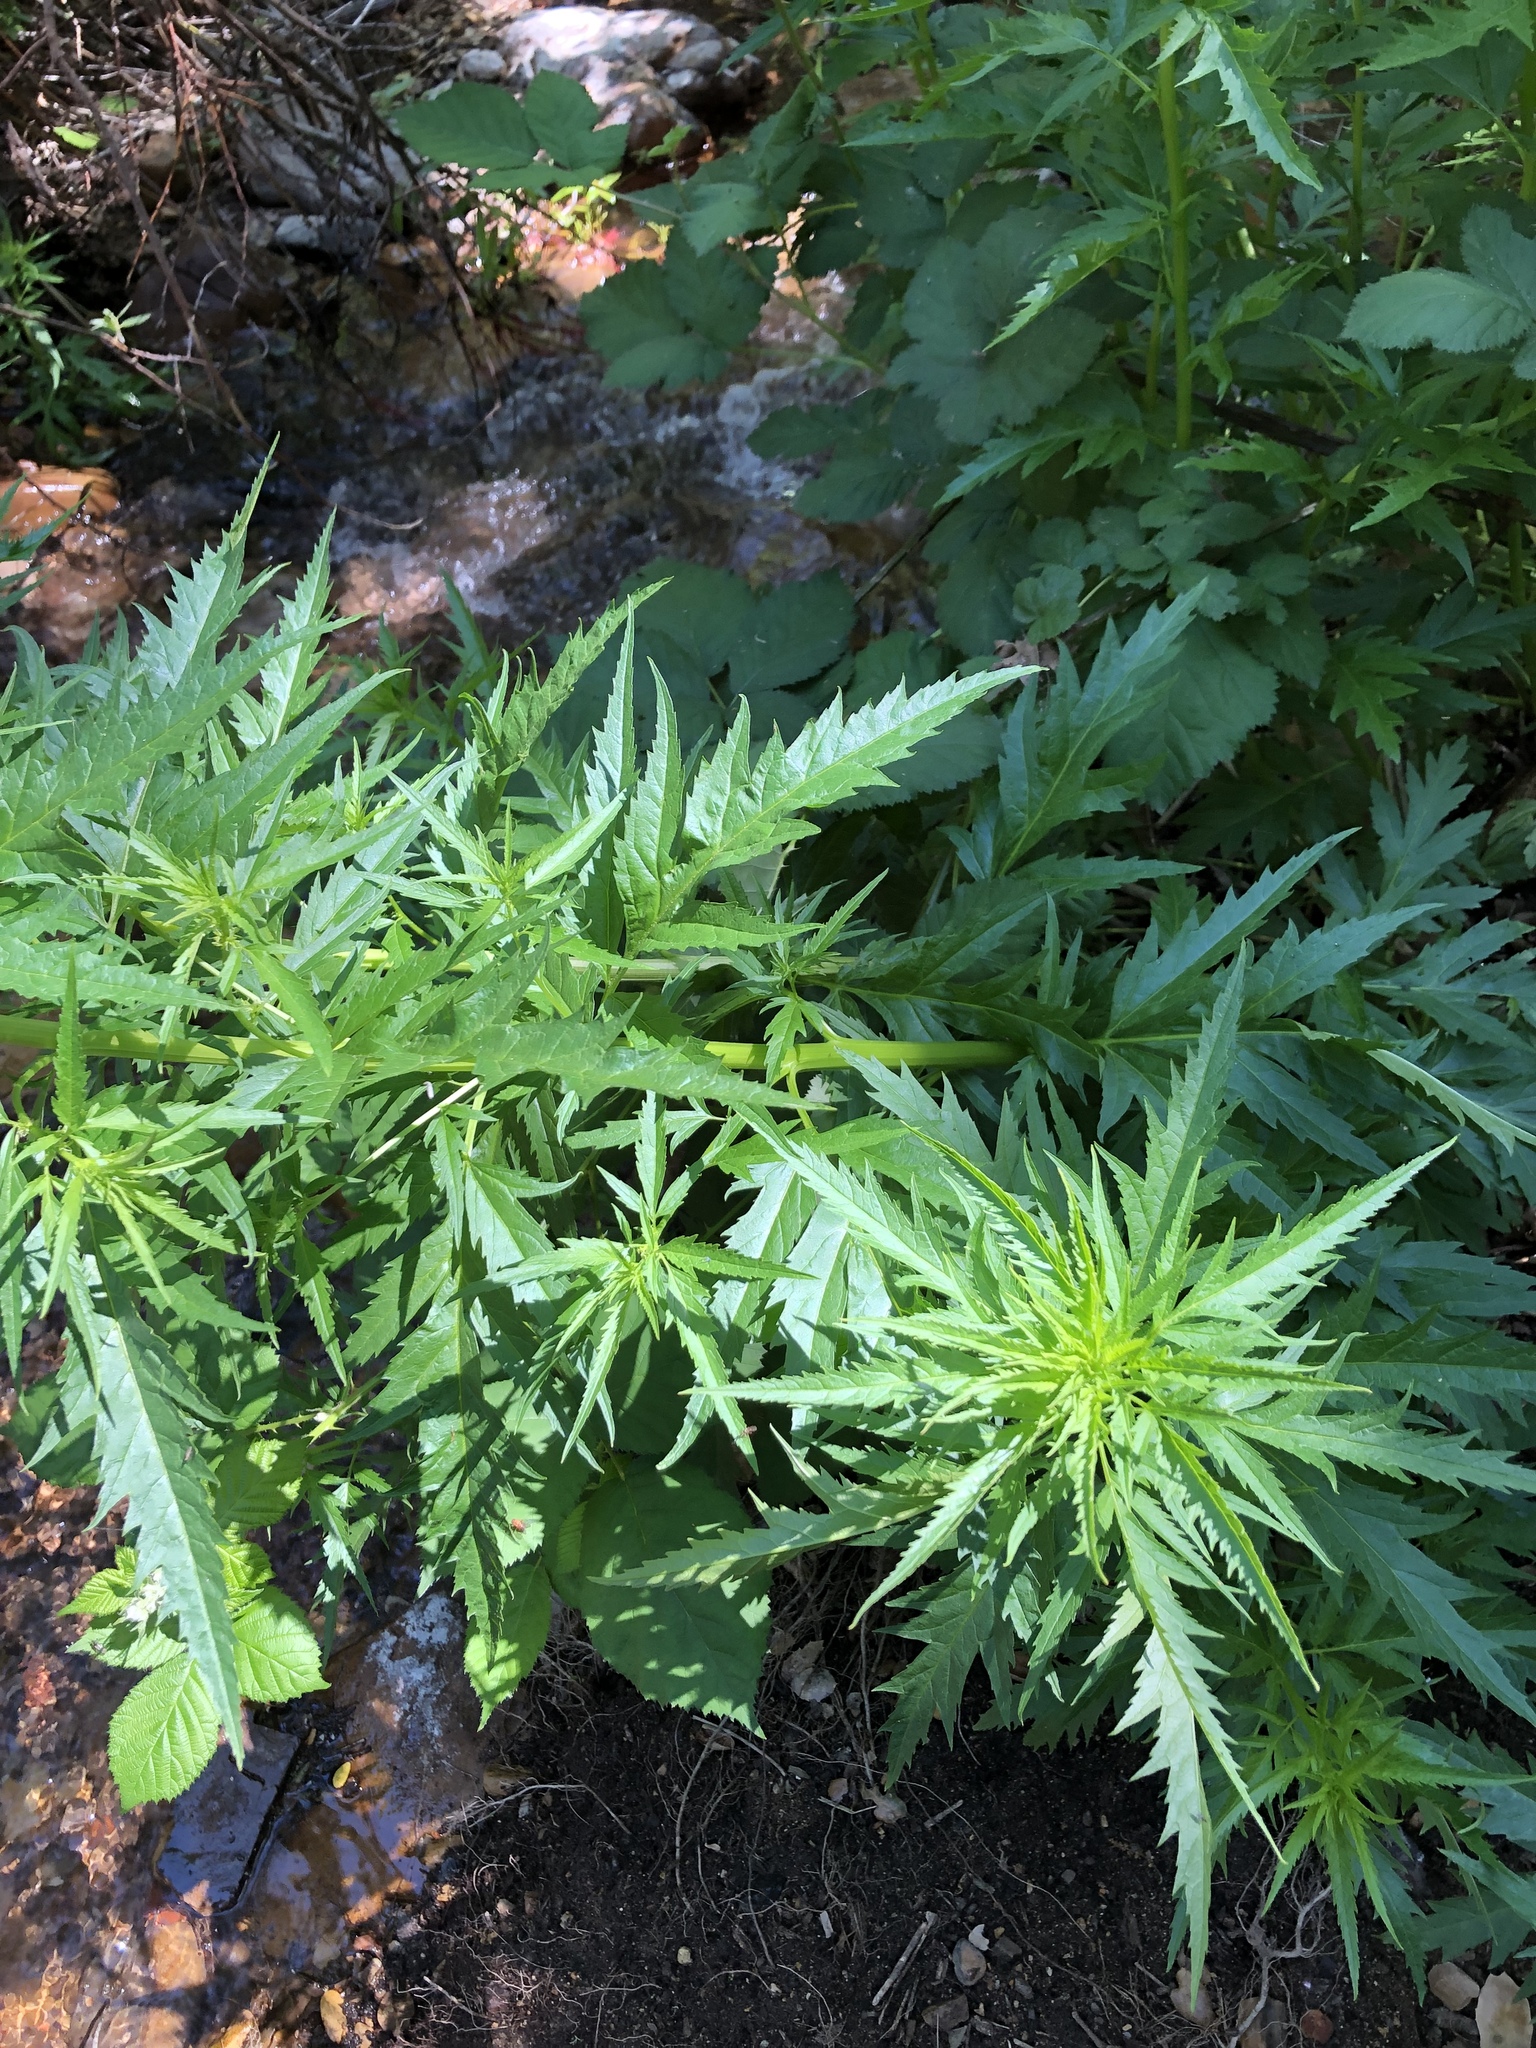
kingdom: Plantae
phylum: Tracheophyta
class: Magnoliopsida
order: Cucurbitales
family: Datiscaceae
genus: Datisca
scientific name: Datisca glomerata
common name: Durango-root
